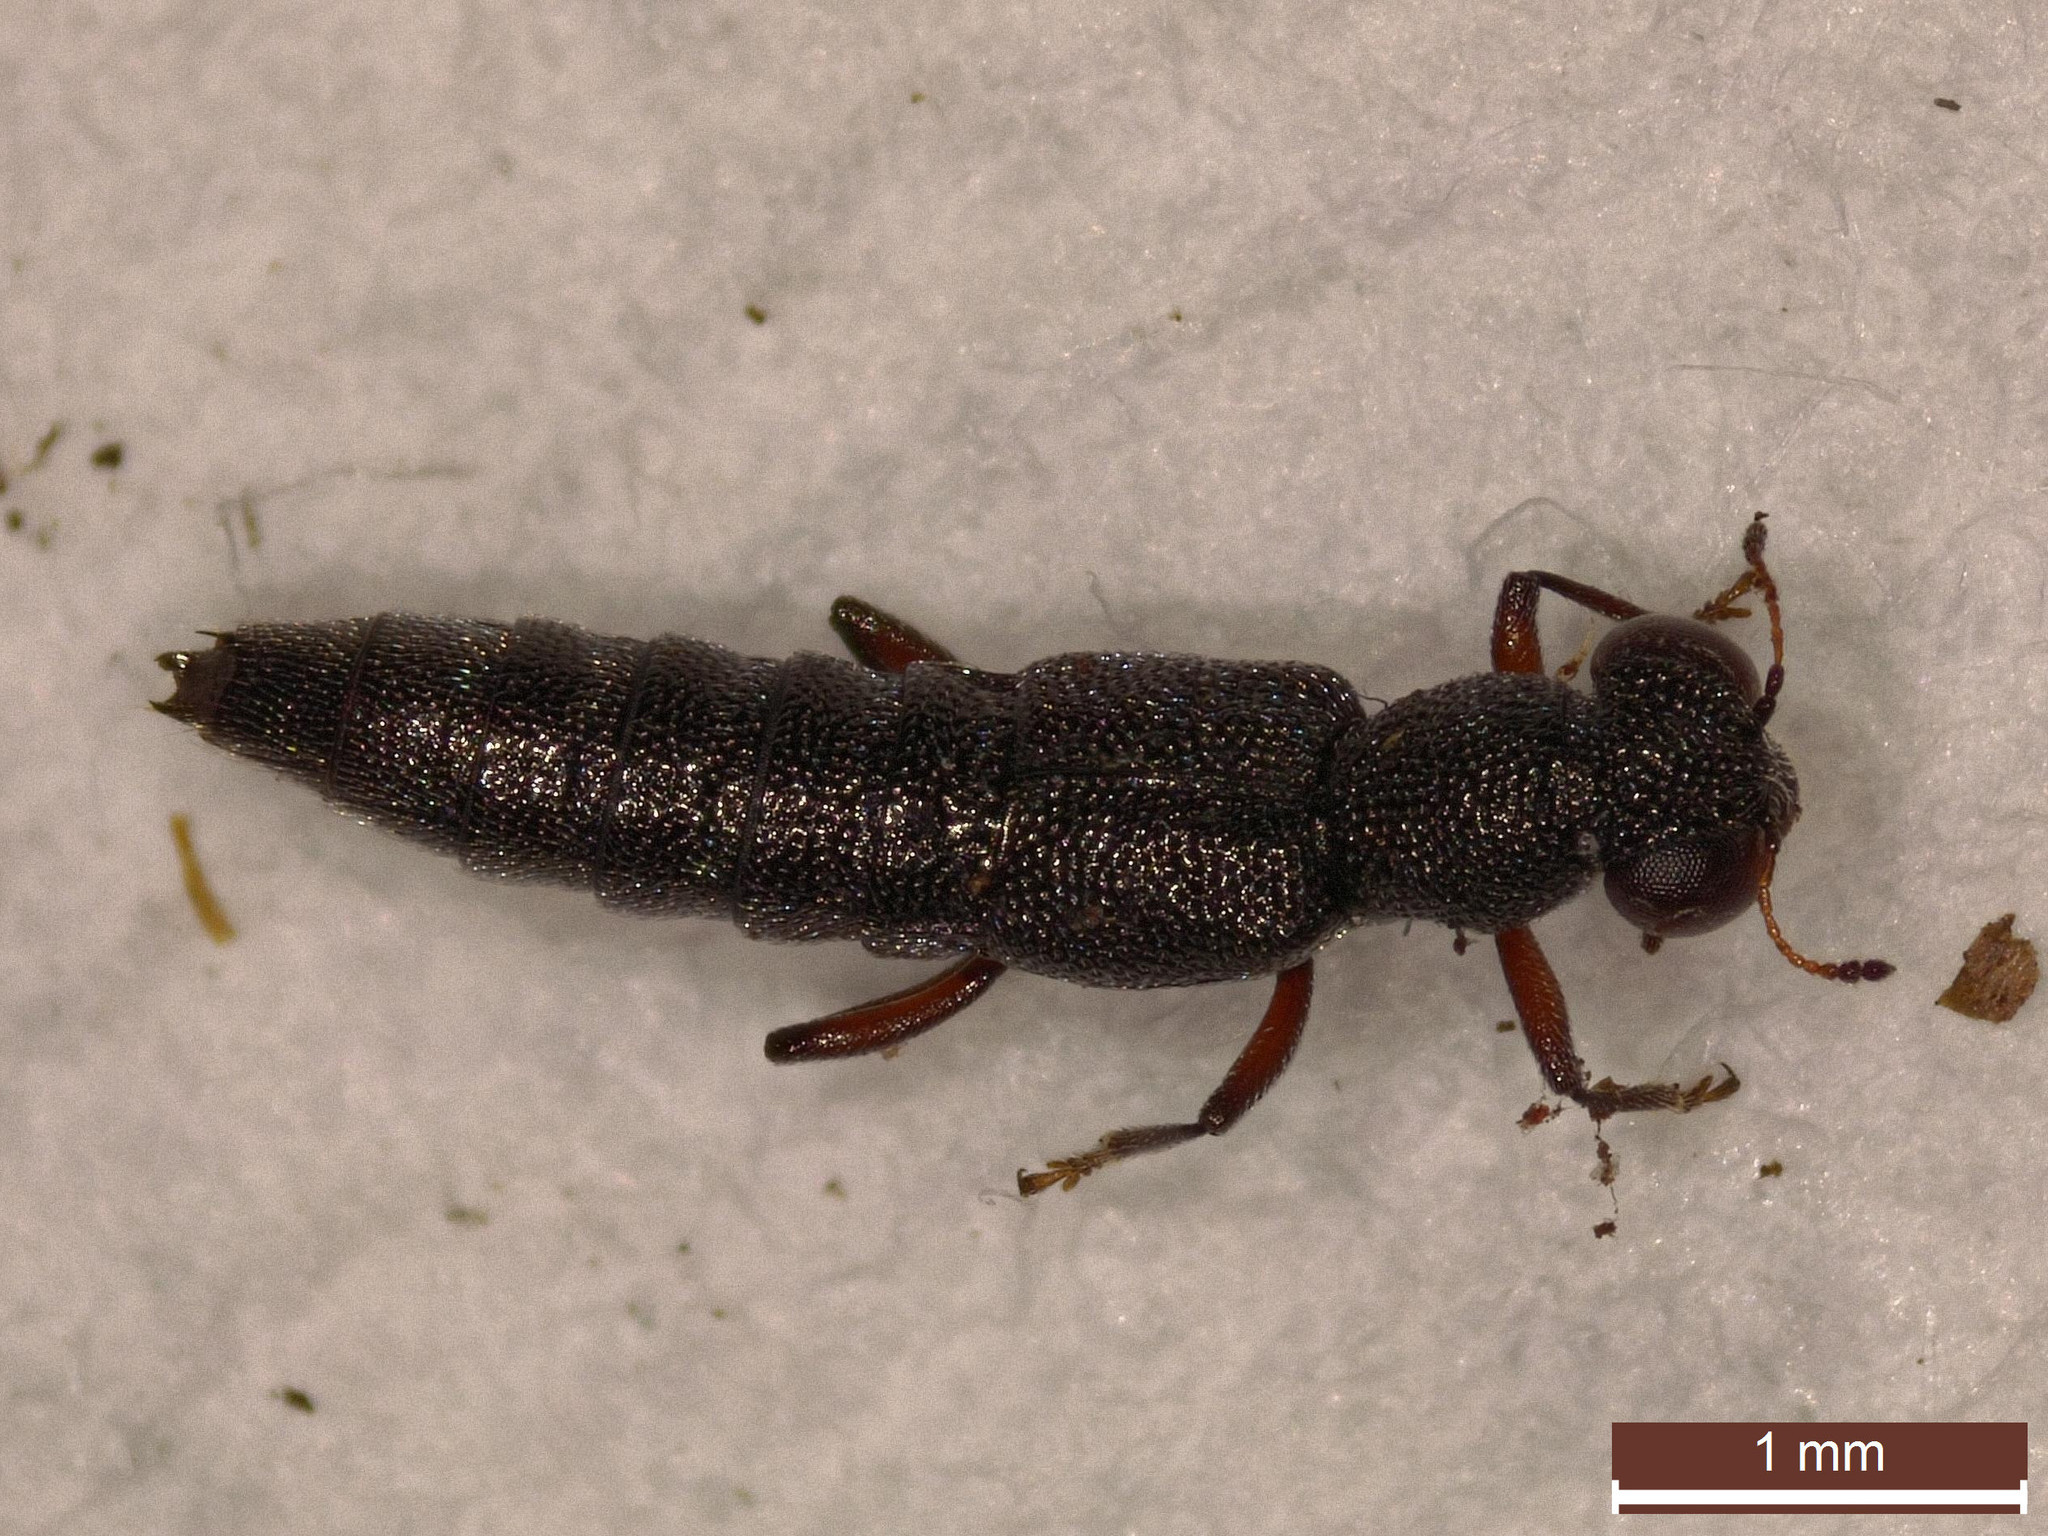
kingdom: Animalia
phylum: Arthropoda
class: Insecta
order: Coleoptera
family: Staphylinidae
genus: Stenus
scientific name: Stenus fulvicornis
